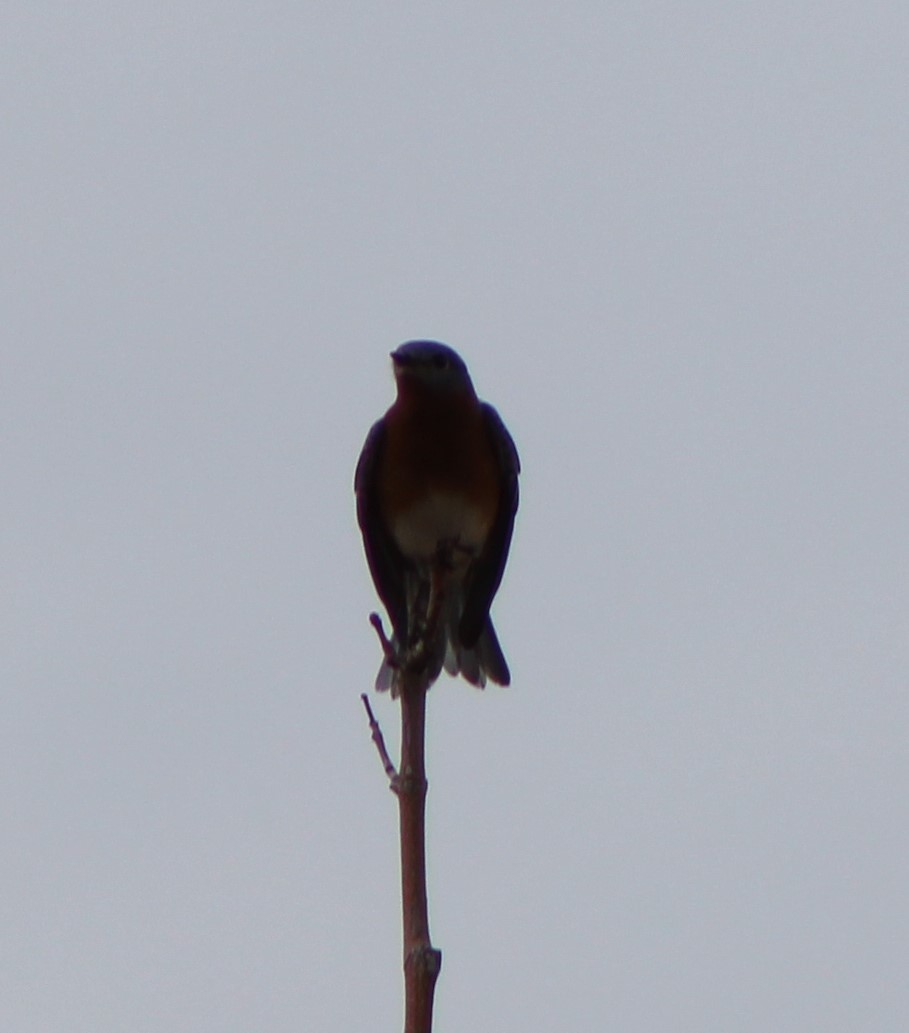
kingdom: Animalia
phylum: Chordata
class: Aves
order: Passeriformes
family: Turdidae
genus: Sialia
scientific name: Sialia sialis
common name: Eastern bluebird
